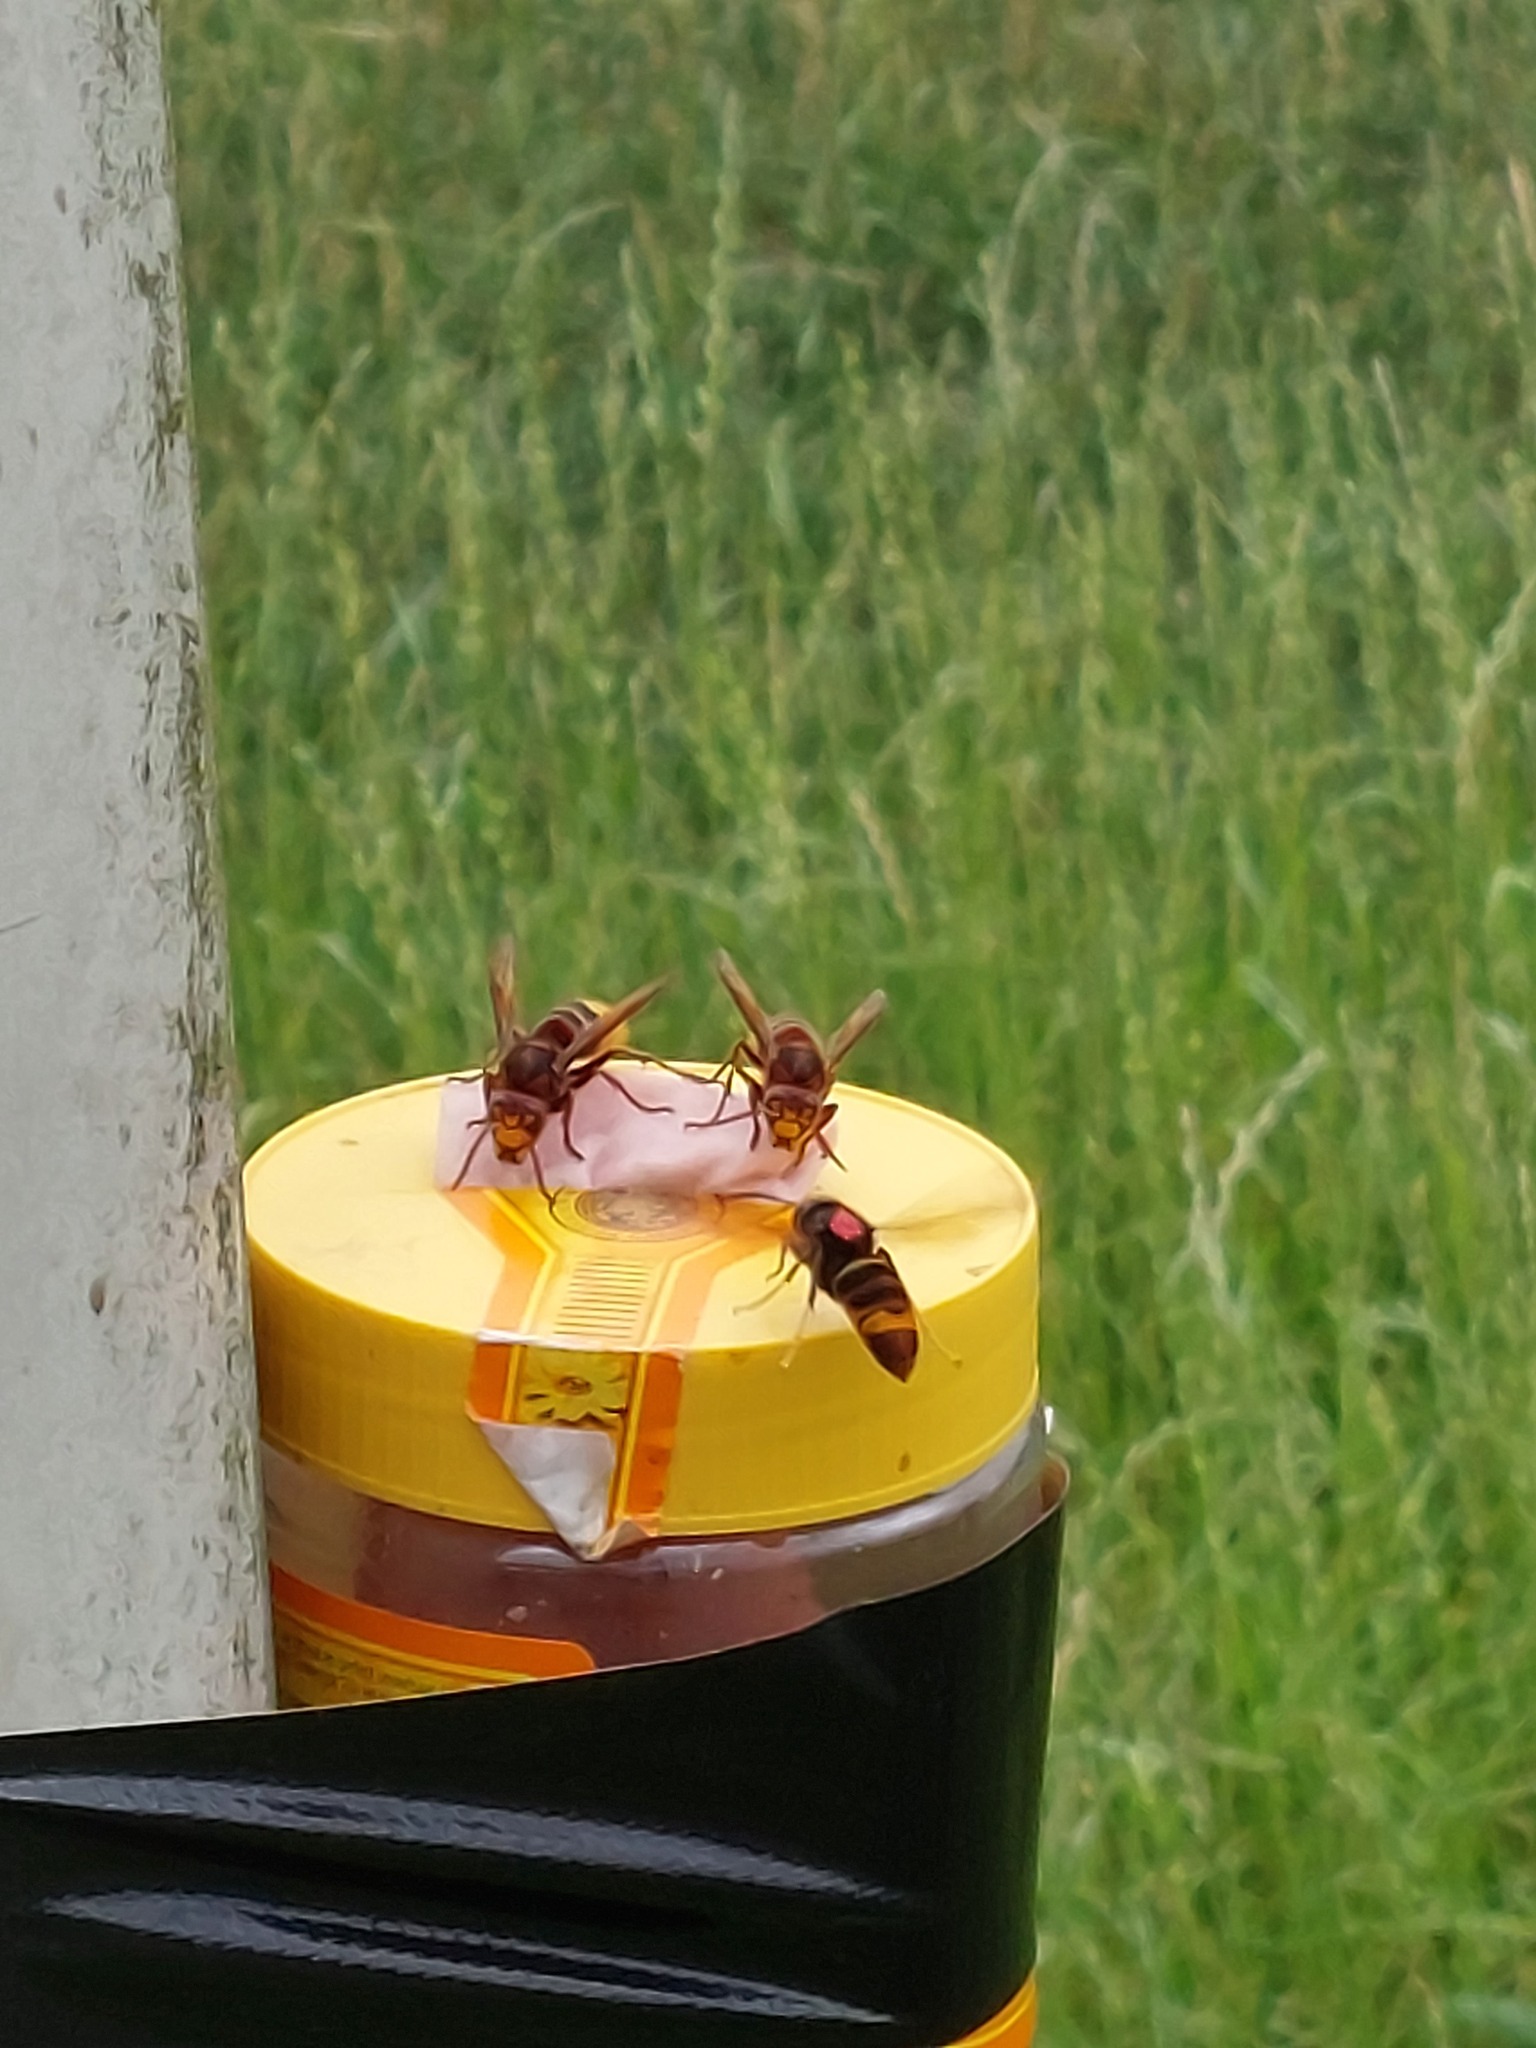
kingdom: Animalia
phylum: Arthropoda
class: Insecta
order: Hymenoptera
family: Vespidae
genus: Vespa
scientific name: Vespa velutina
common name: Asian hornet
